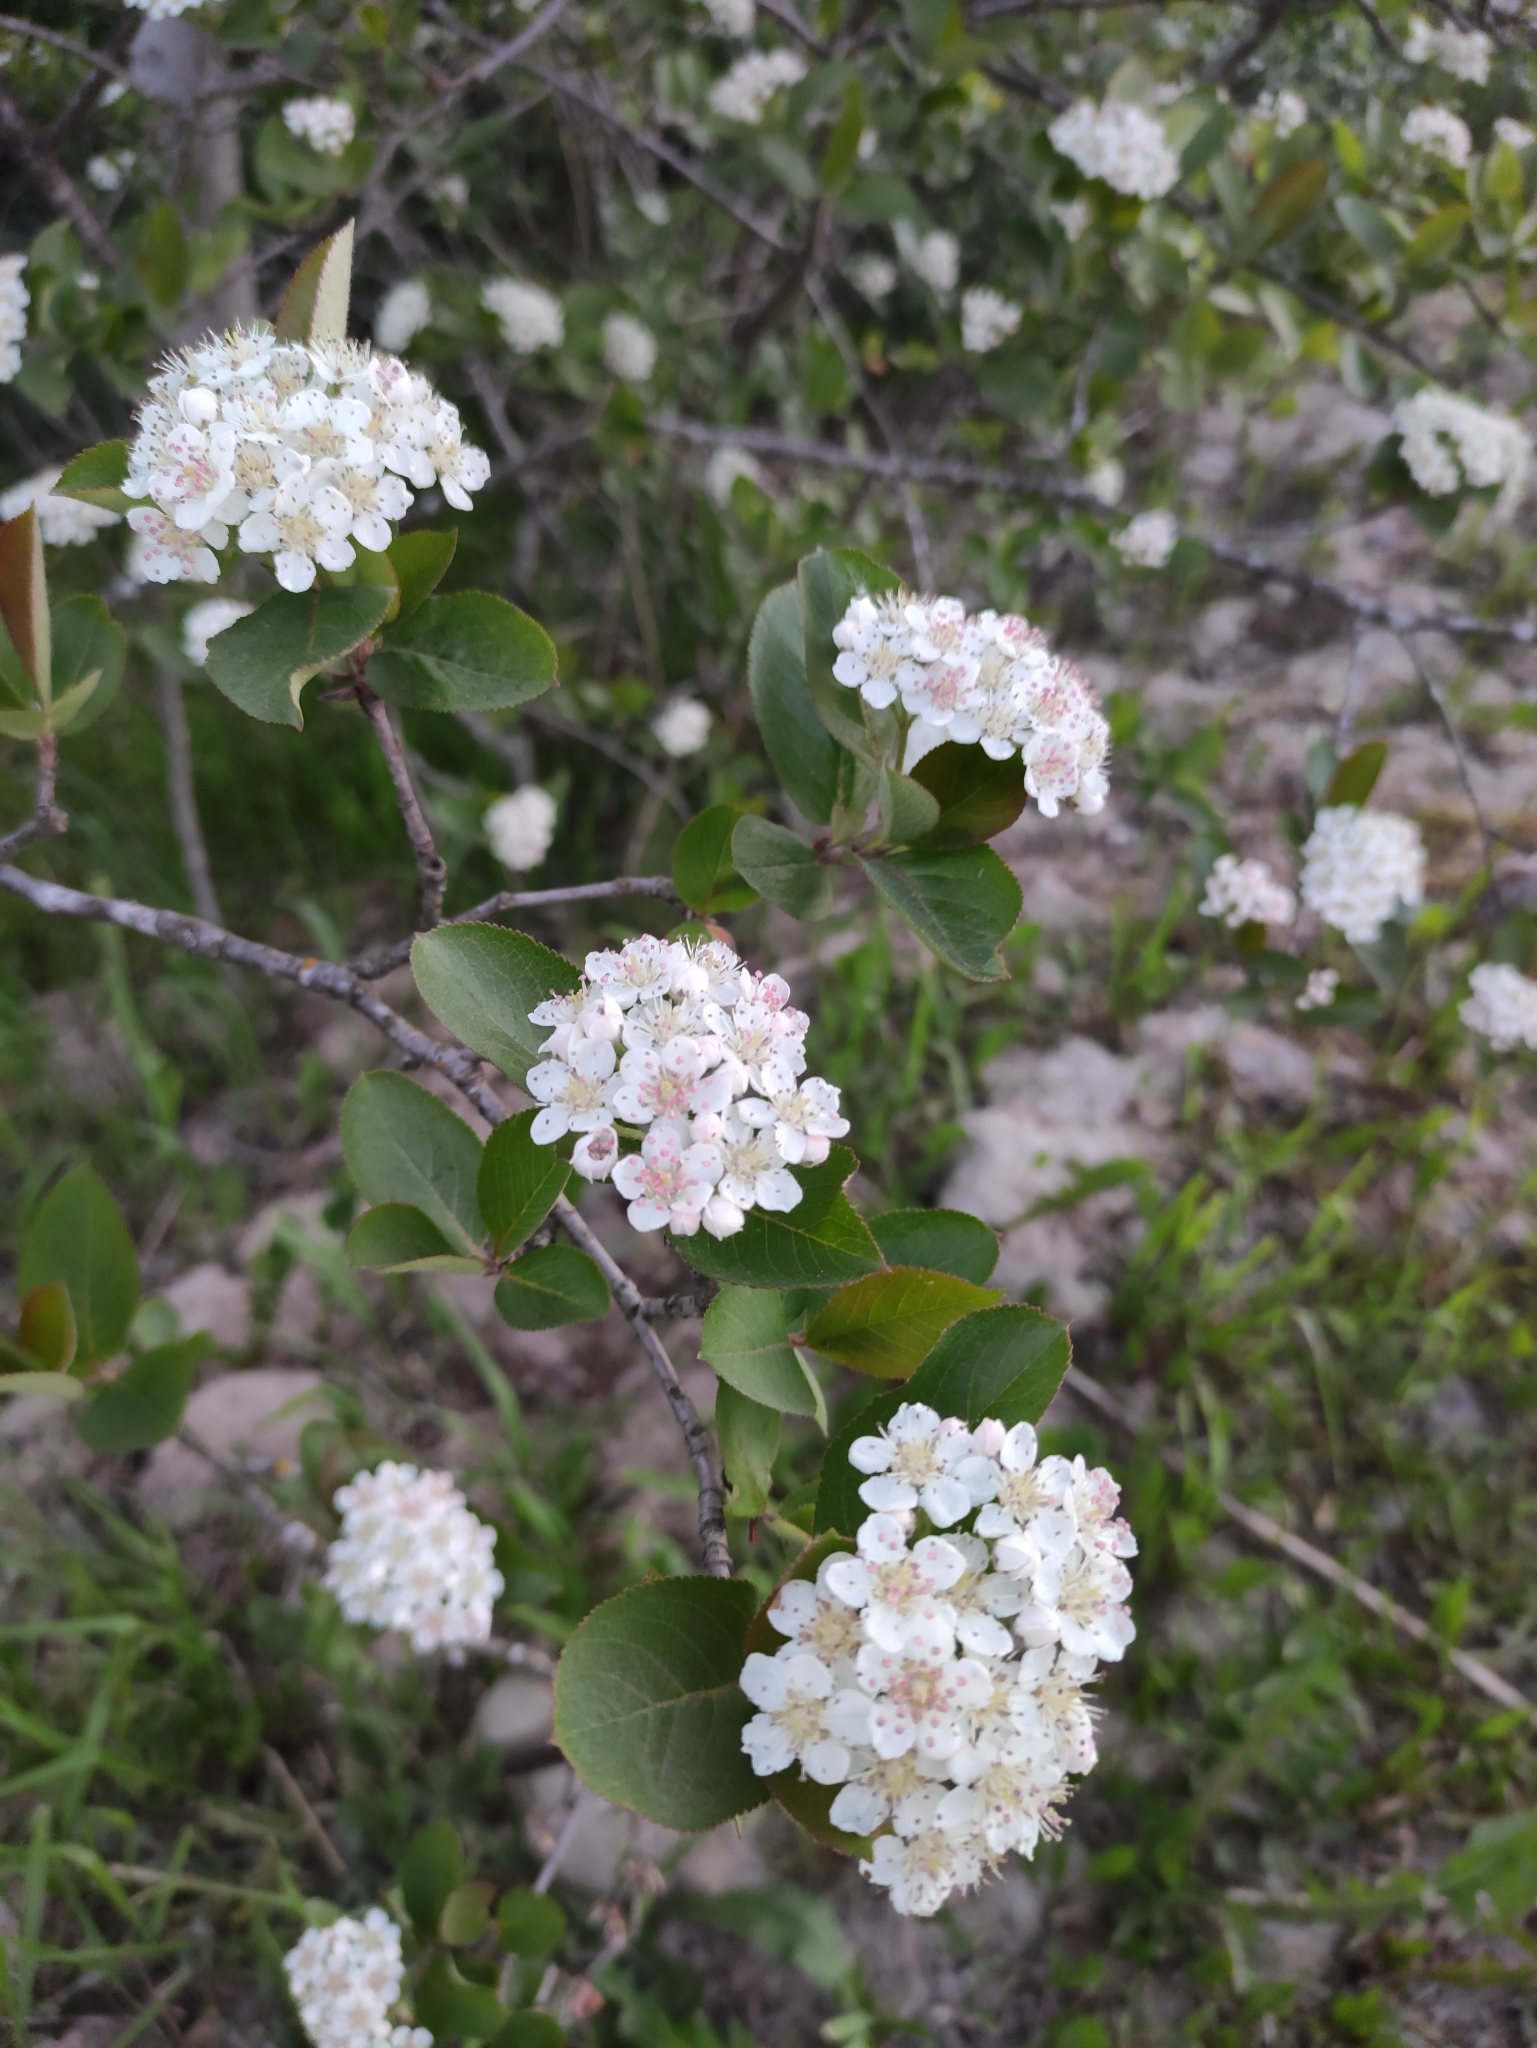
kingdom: Plantae
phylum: Tracheophyta
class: Magnoliopsida
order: Rosales
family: Rosaceae
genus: Sorbaronia
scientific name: Sorbaronia arsenii
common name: Arsène's mountain-ash
